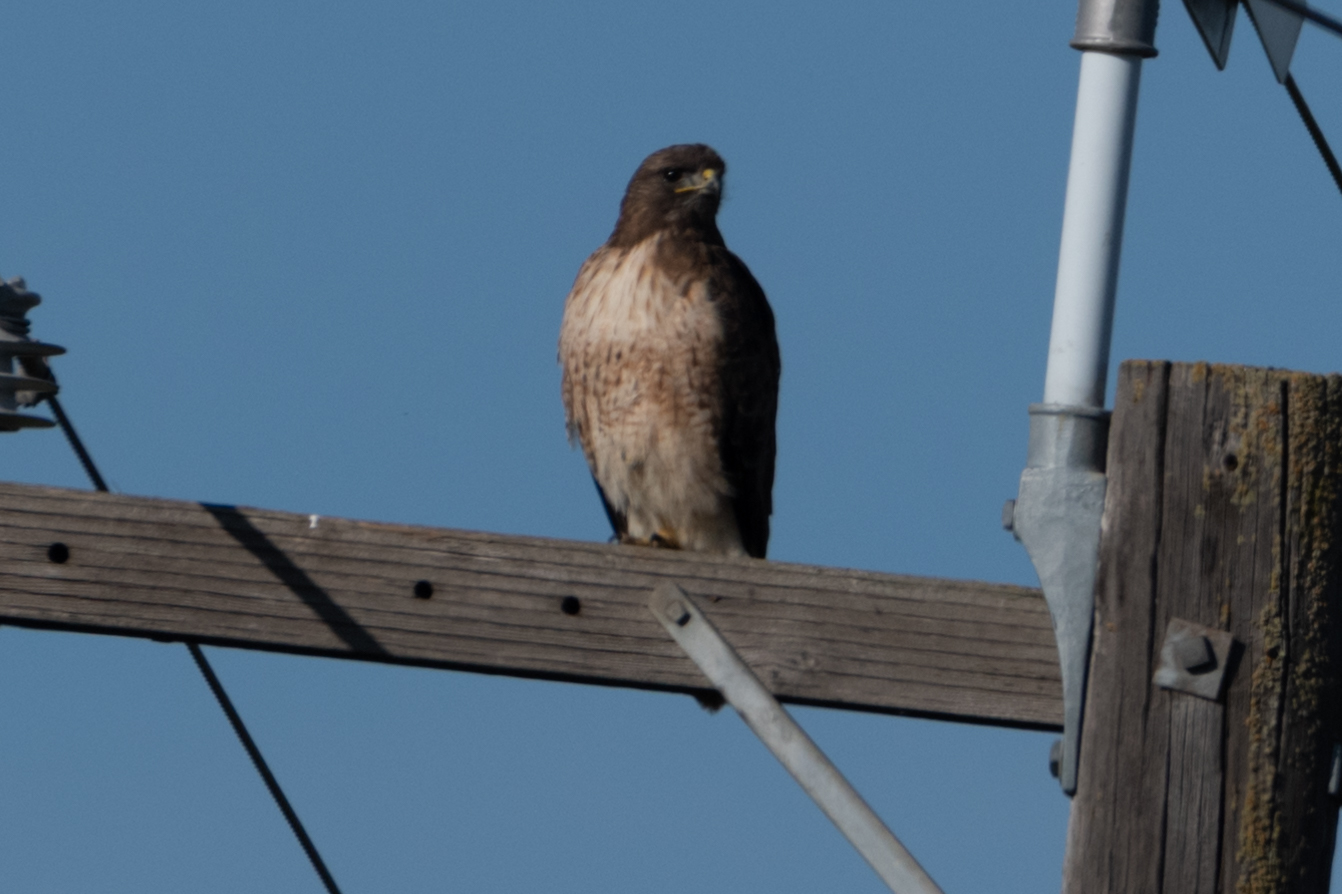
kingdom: Animalia
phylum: Chordata
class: Aves
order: Accipitriformes
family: Accipitridae
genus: Buteo
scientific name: Buteo jamaicensis
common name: Red-tailed hawk
